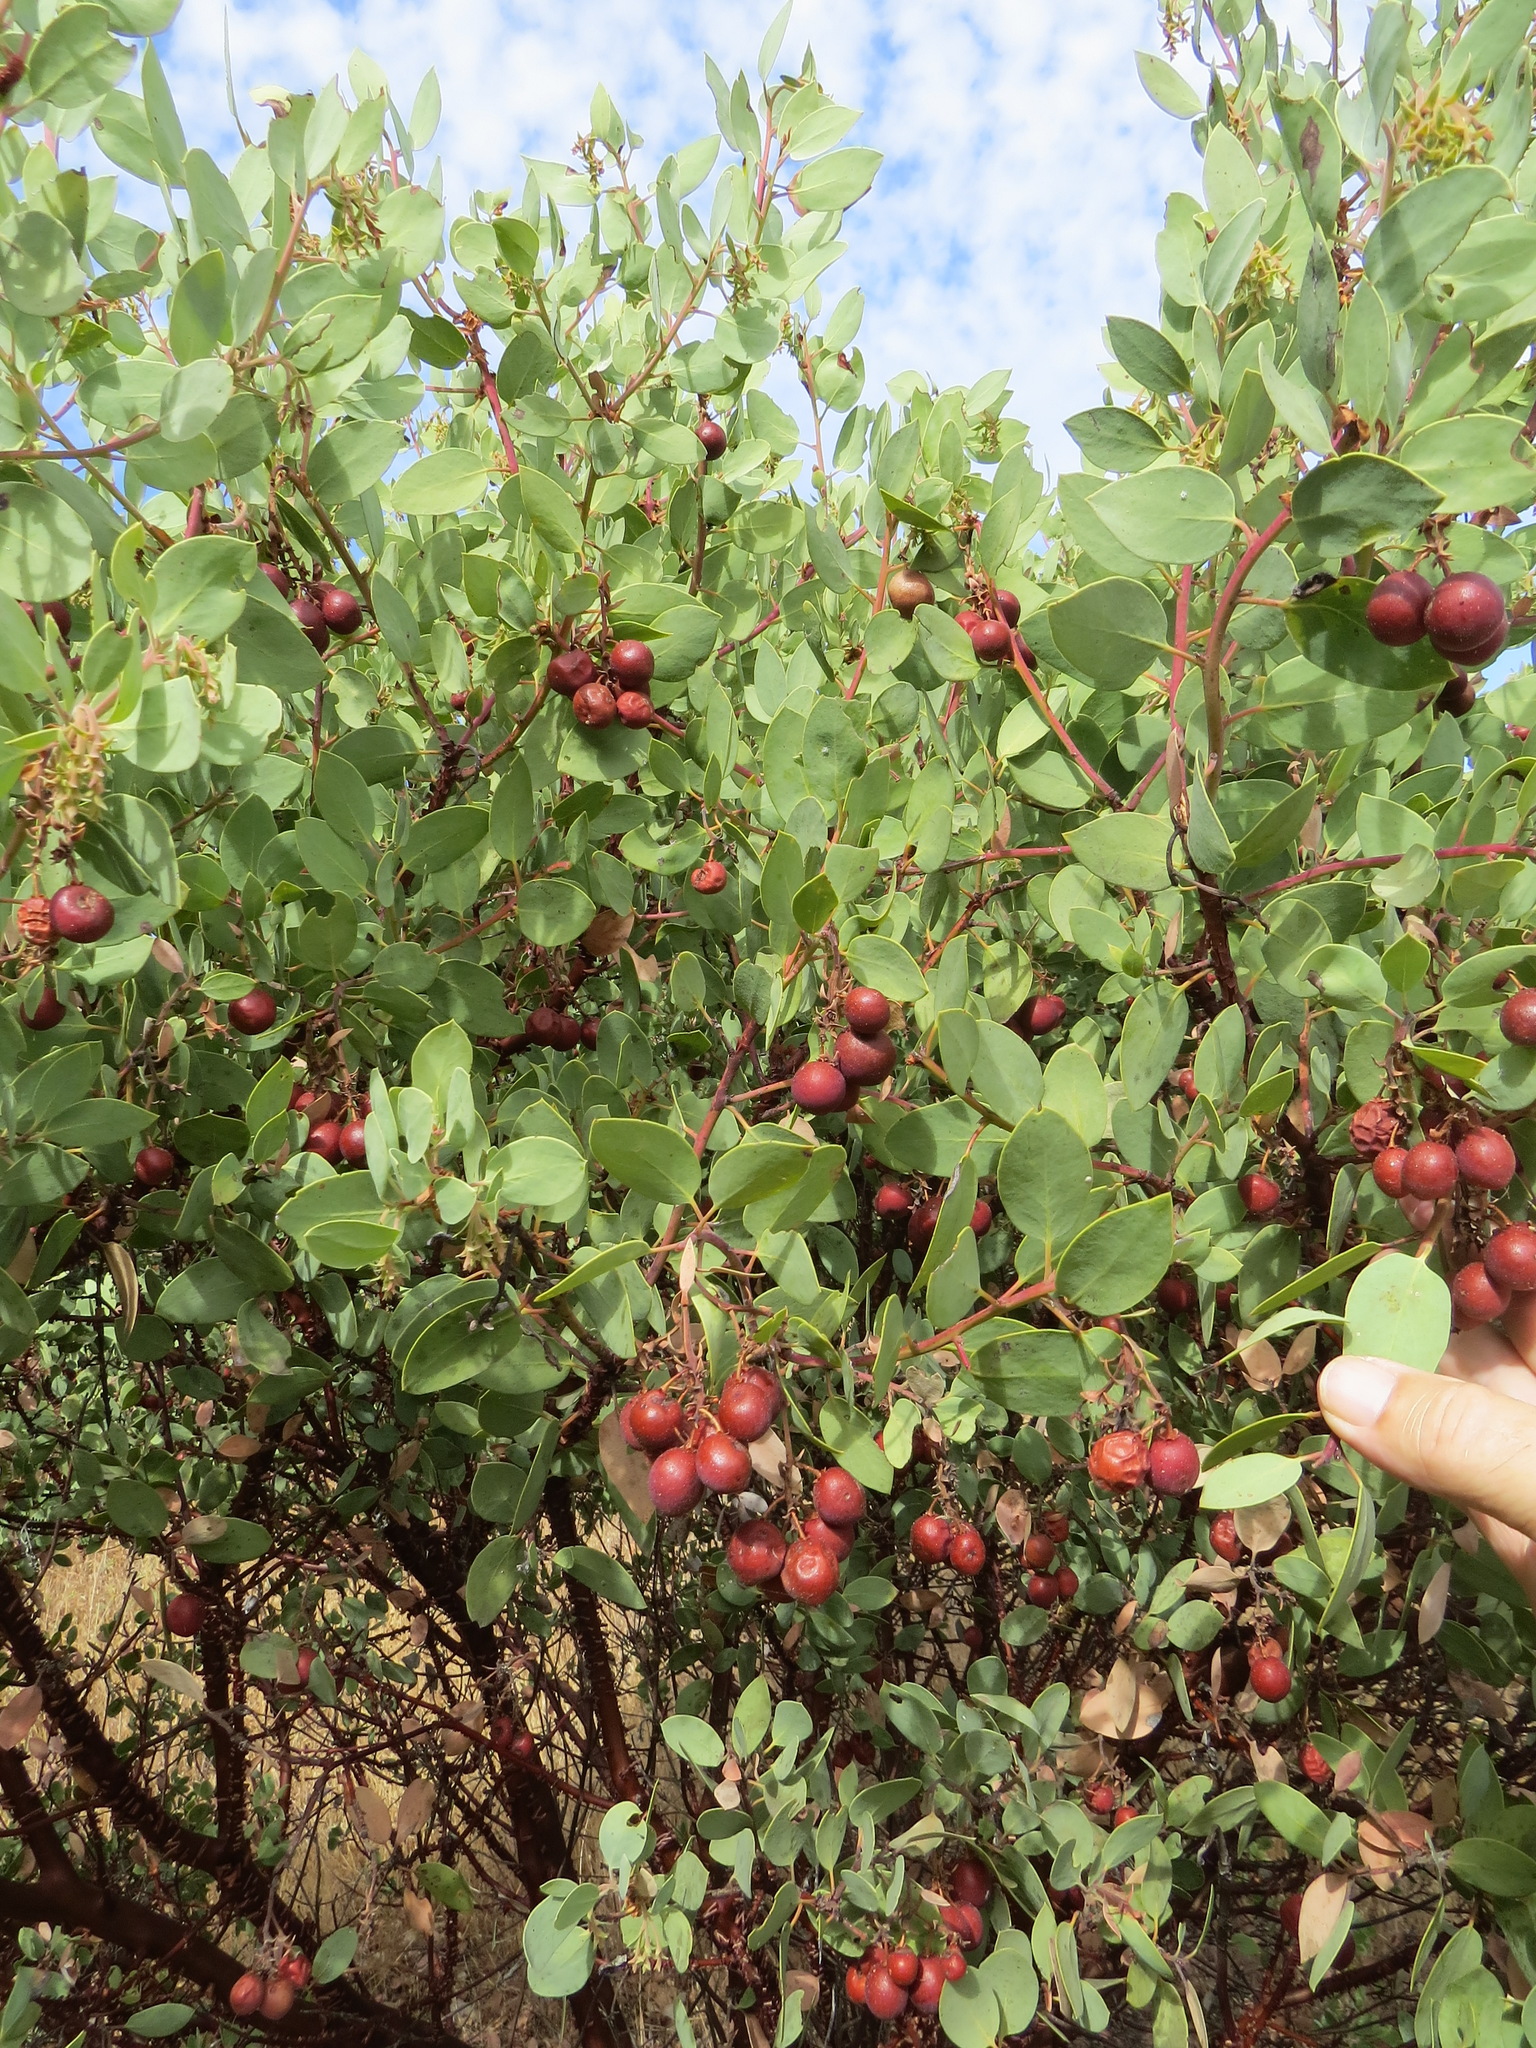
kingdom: Plantae
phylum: Tracheophyta
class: Magnoliopsida
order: Ericales
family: Ericaceae
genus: Arctostaphylos
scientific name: Arctostaphylos glauca
